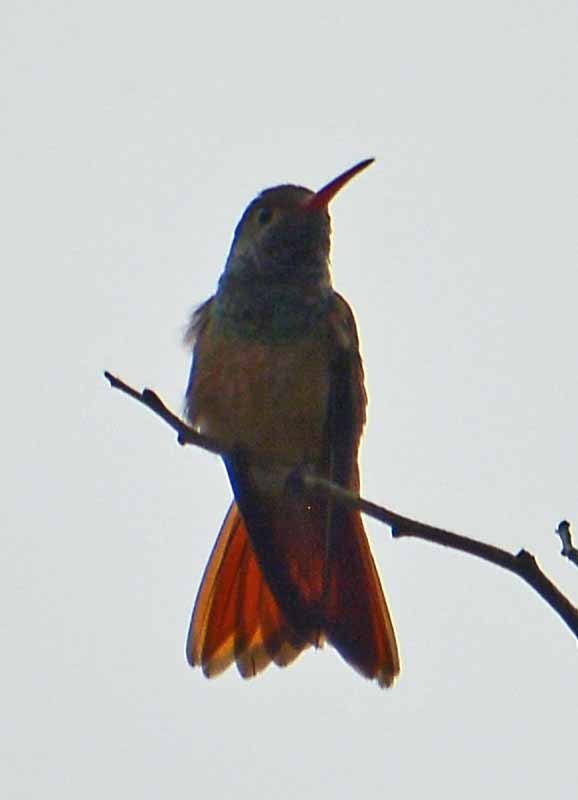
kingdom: Animalia
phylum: Chordata
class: Aves
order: Apodiformes
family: Trochilidae
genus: Amazilia
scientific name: Amazilia yucatanensis
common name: Buff-bellied hummingbird
